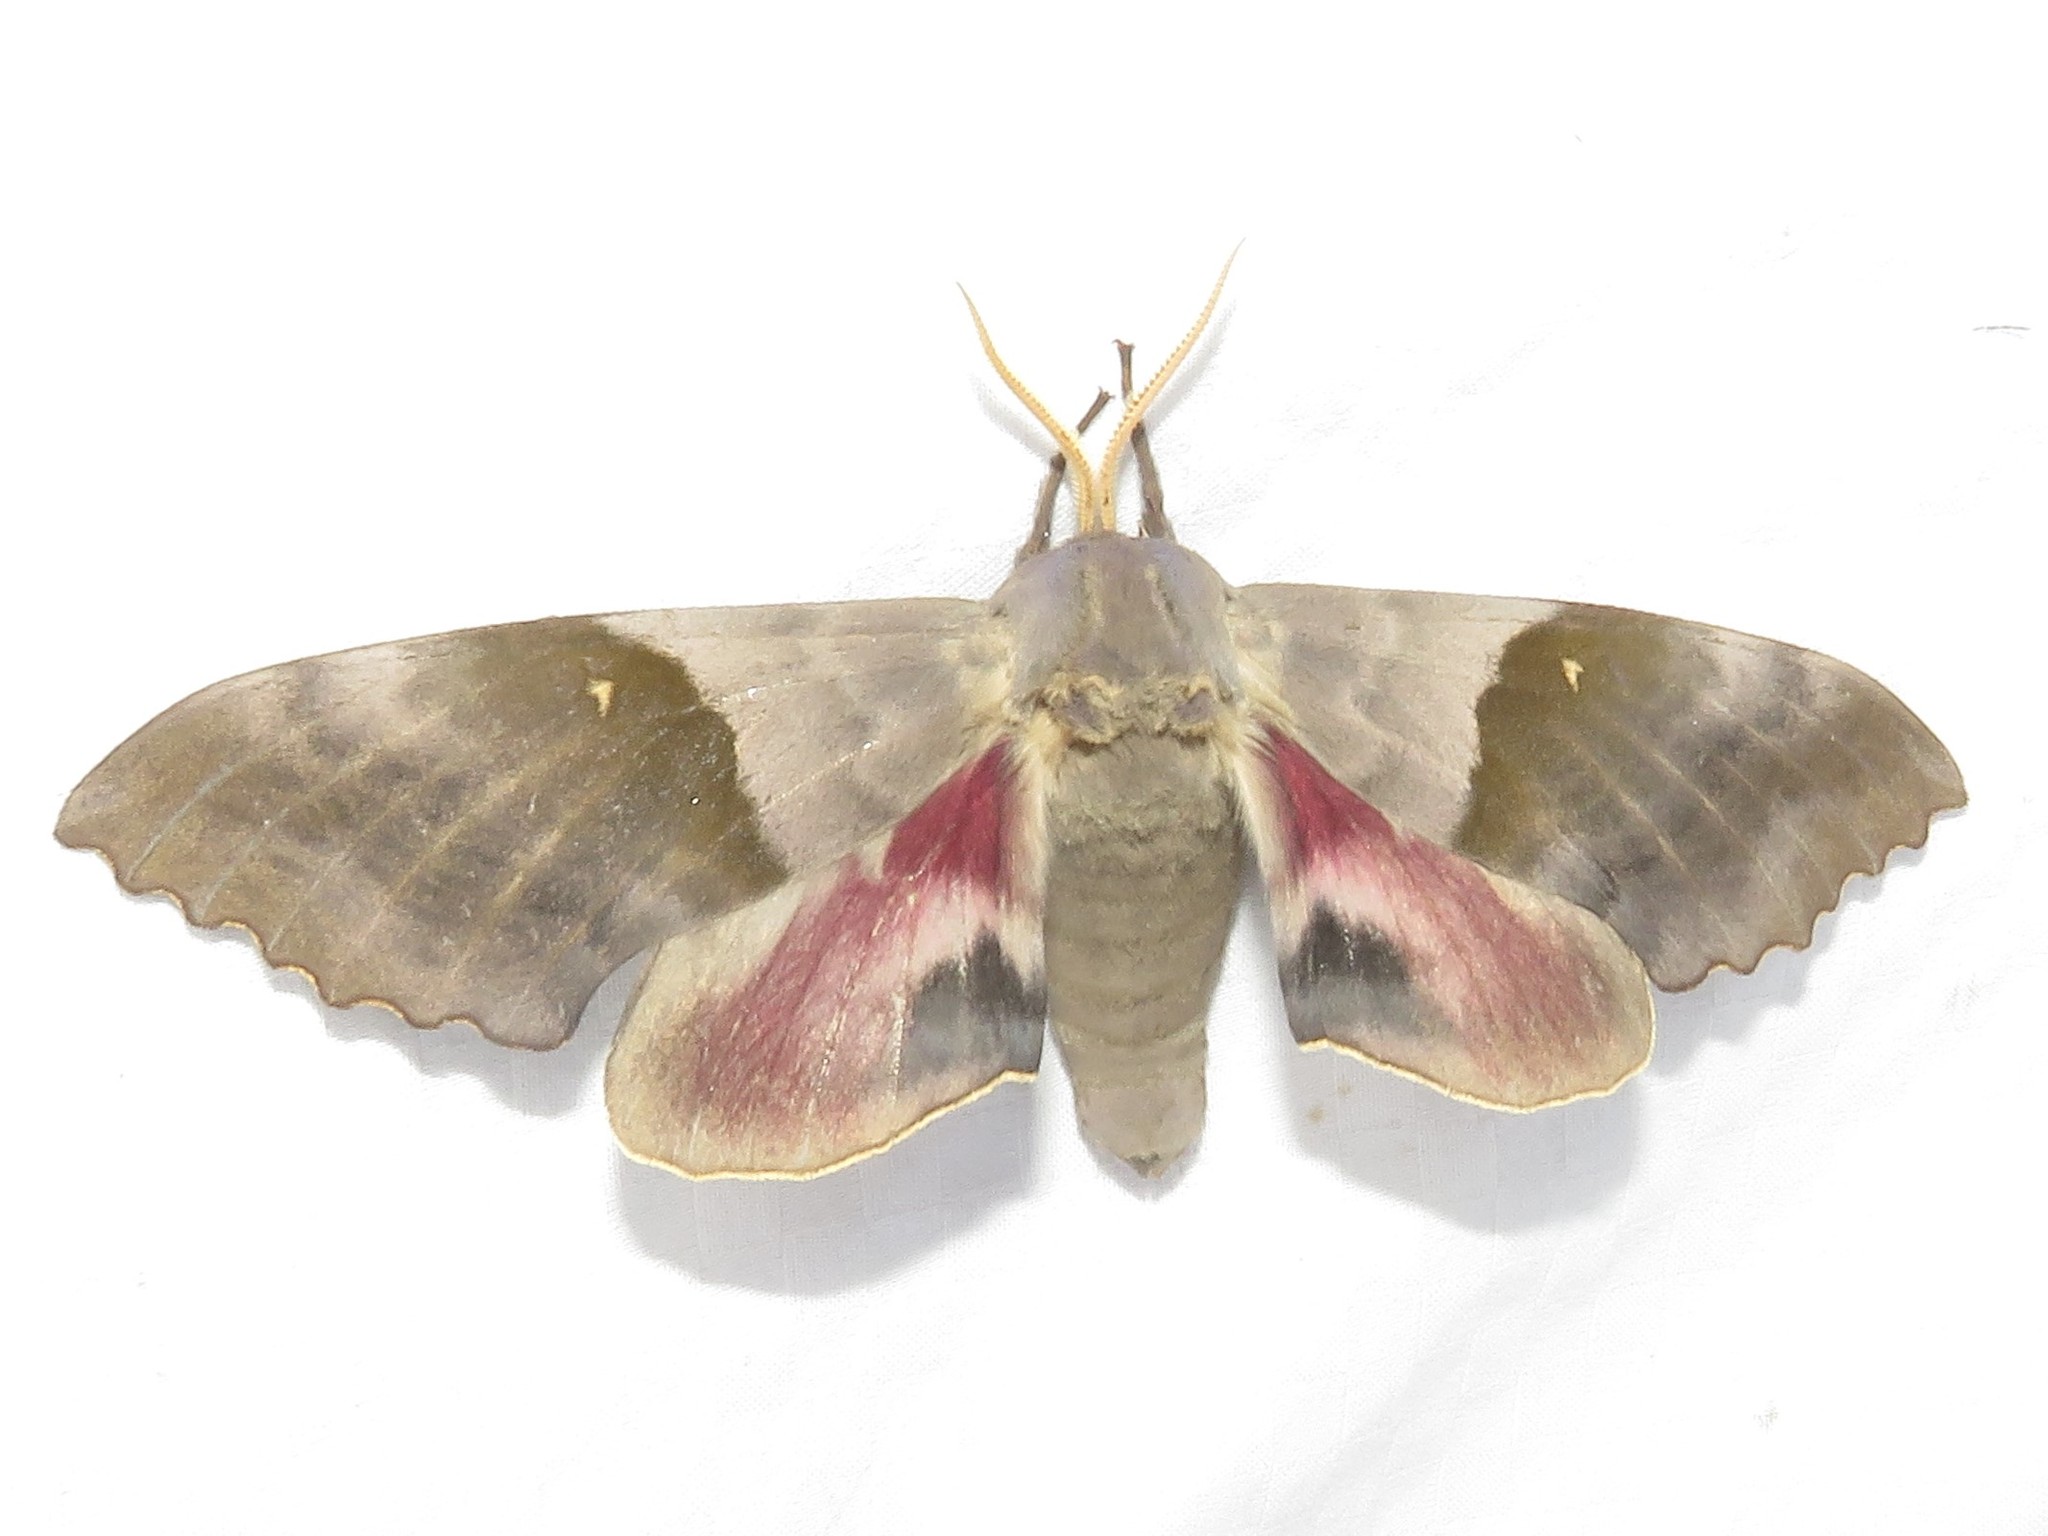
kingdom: Animalia
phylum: Arthropoda
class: Insecta
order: Lepidoptera
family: Sphingidae
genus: Pachysphinx
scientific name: Pachysphinx modesta
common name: Big poplar sphinx
